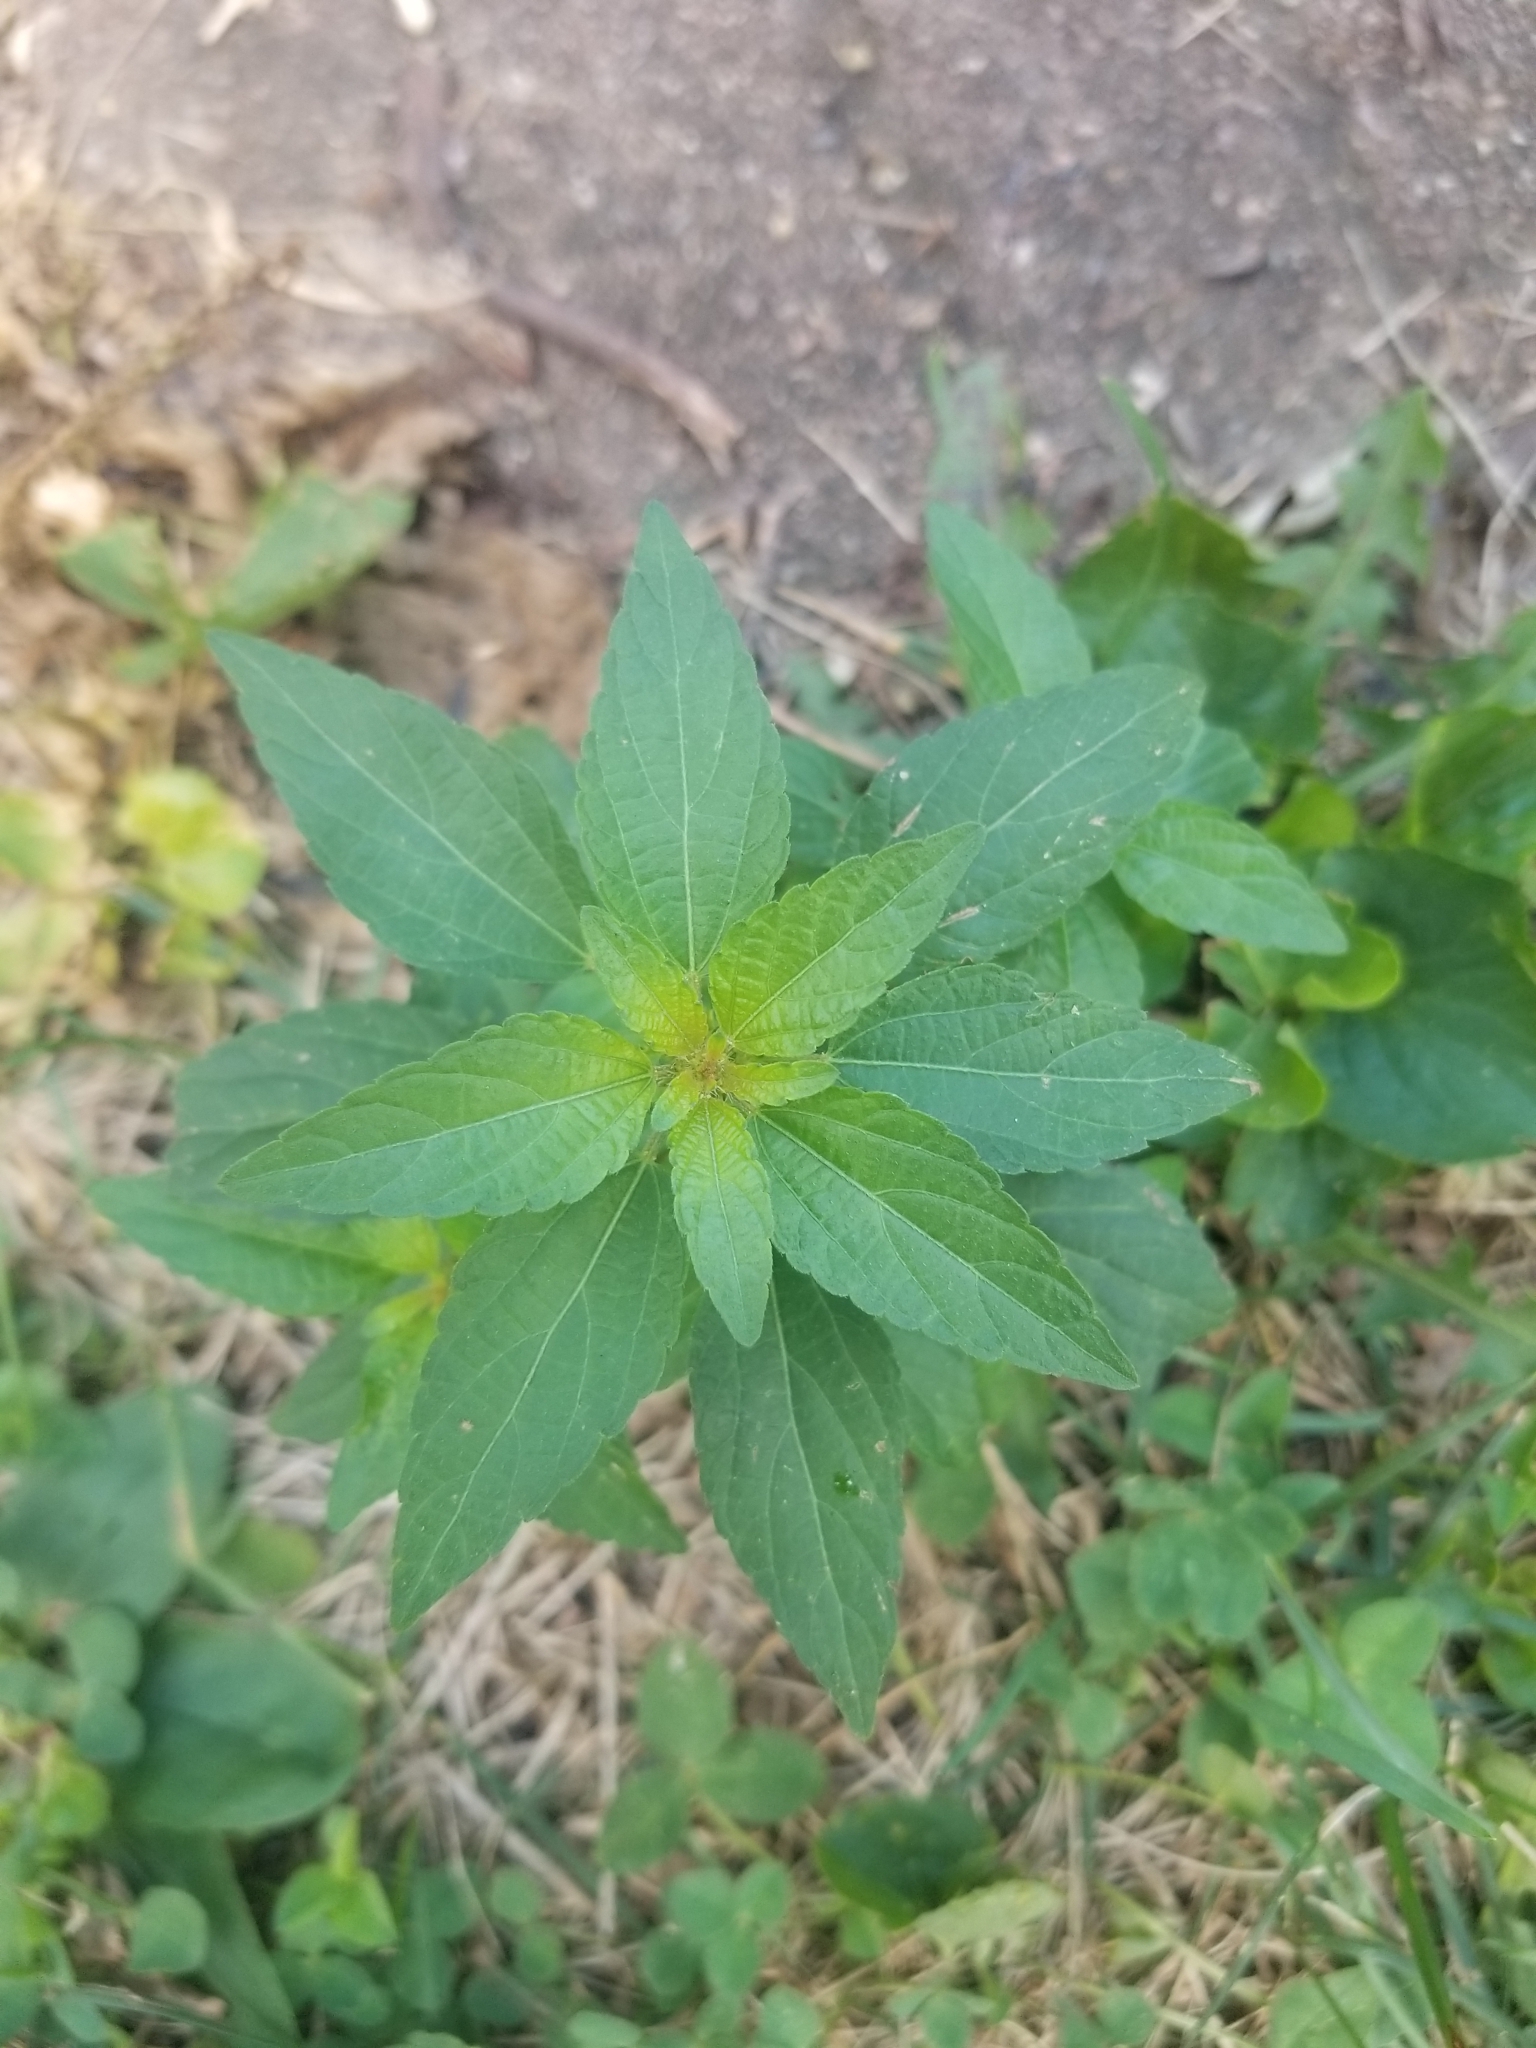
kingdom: Plantae
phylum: Tracheophyta
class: Magnoliopsida
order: Malpighiales
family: Euphorbiaceae
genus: Acalypha
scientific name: Acalypha rhomboidea
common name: Rhombic copperleaf
